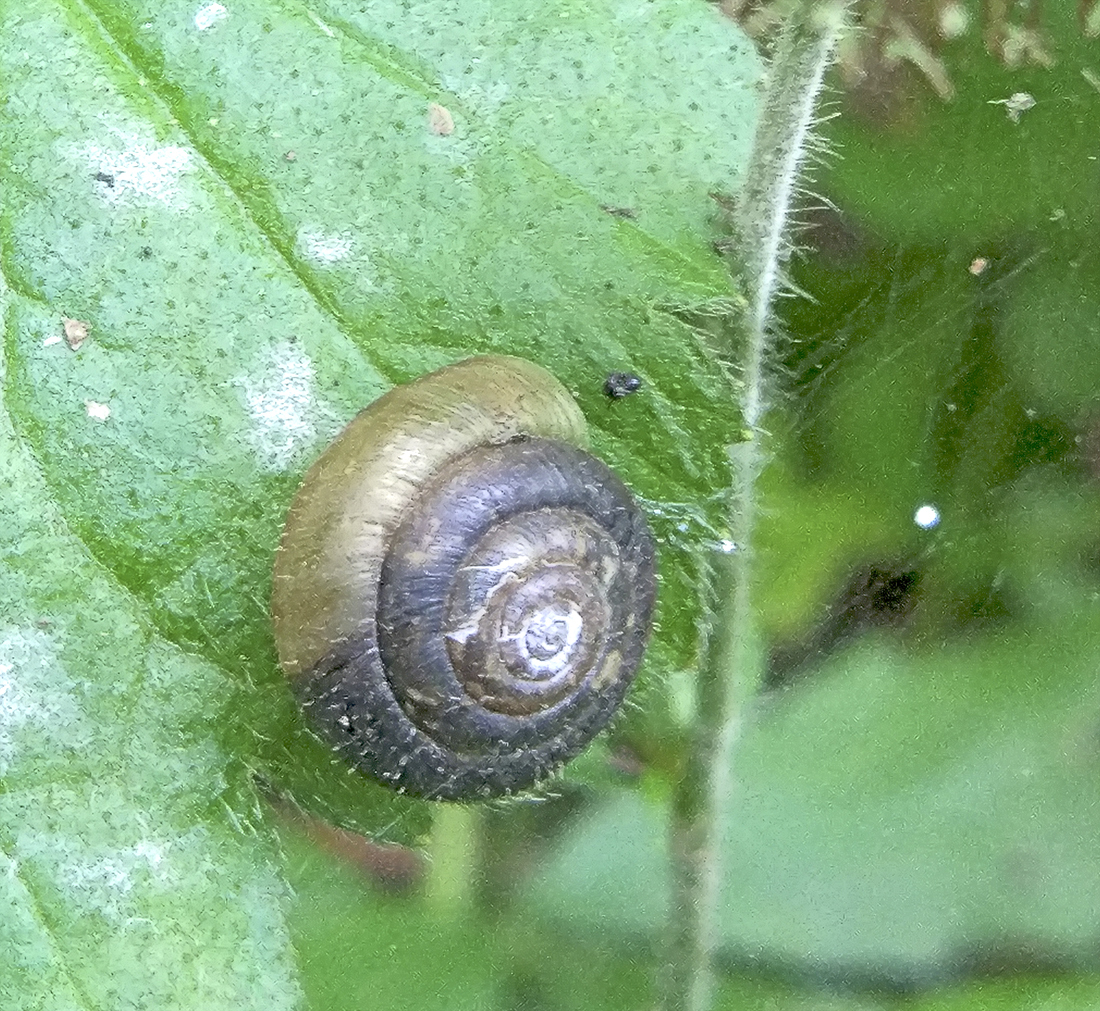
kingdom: Animalia
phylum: Mollusca
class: Gastropoda
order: Stylommatophora
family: Hygromiidae
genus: Trochulus
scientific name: Trochulus hispidus
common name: Hairy snail
